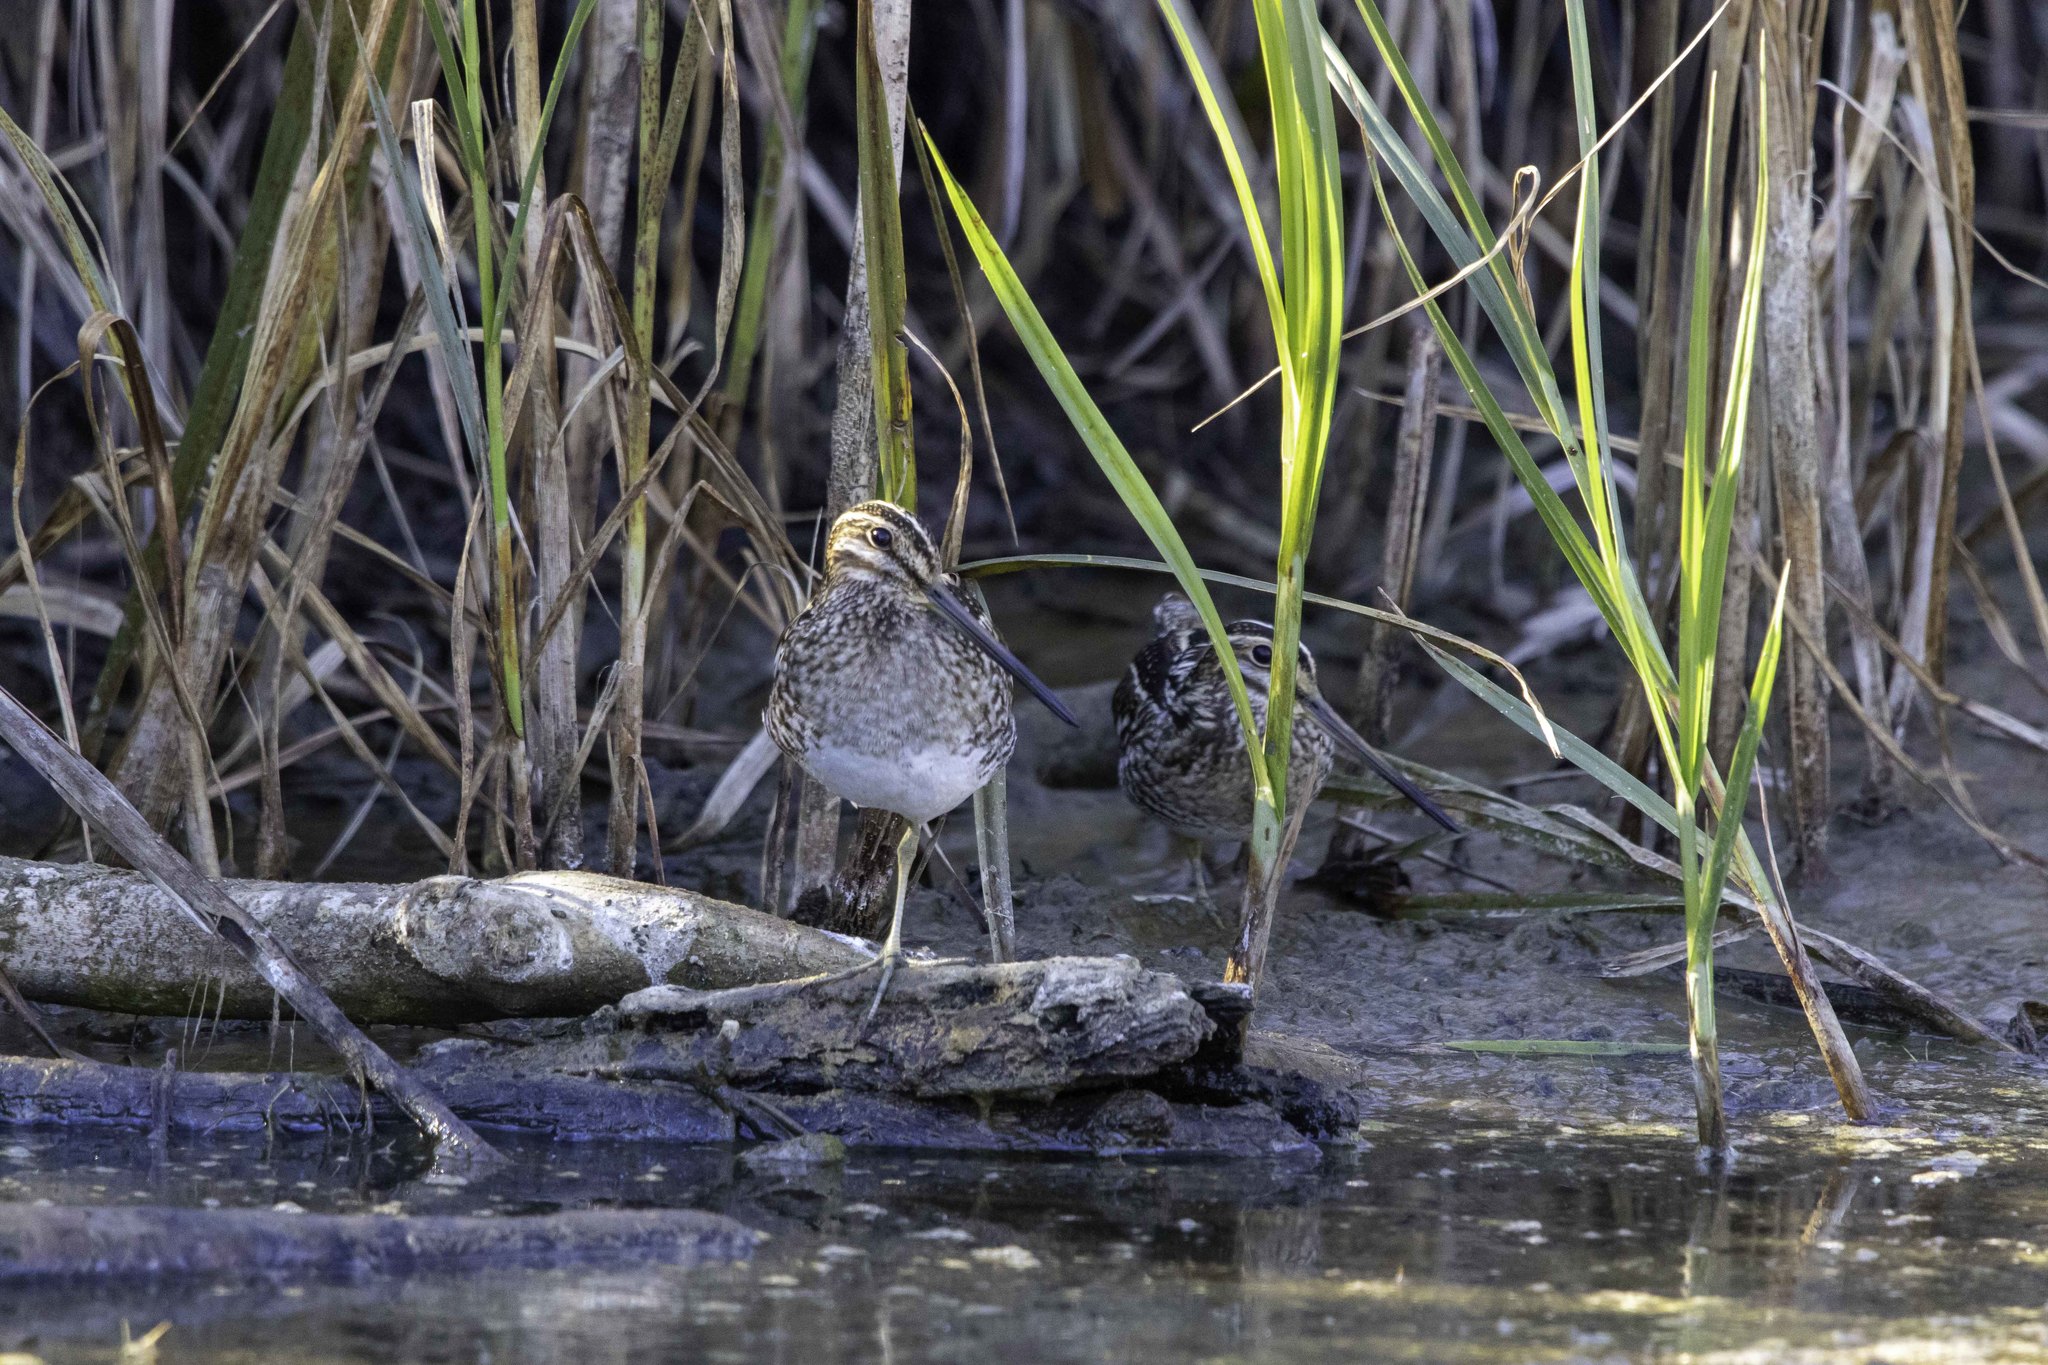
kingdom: Animalia
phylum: Chordata
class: Aves
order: Charadriiformes
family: Scolopacidae
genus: Gallinago
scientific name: Gallinago delicata
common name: Wilson's snipe
